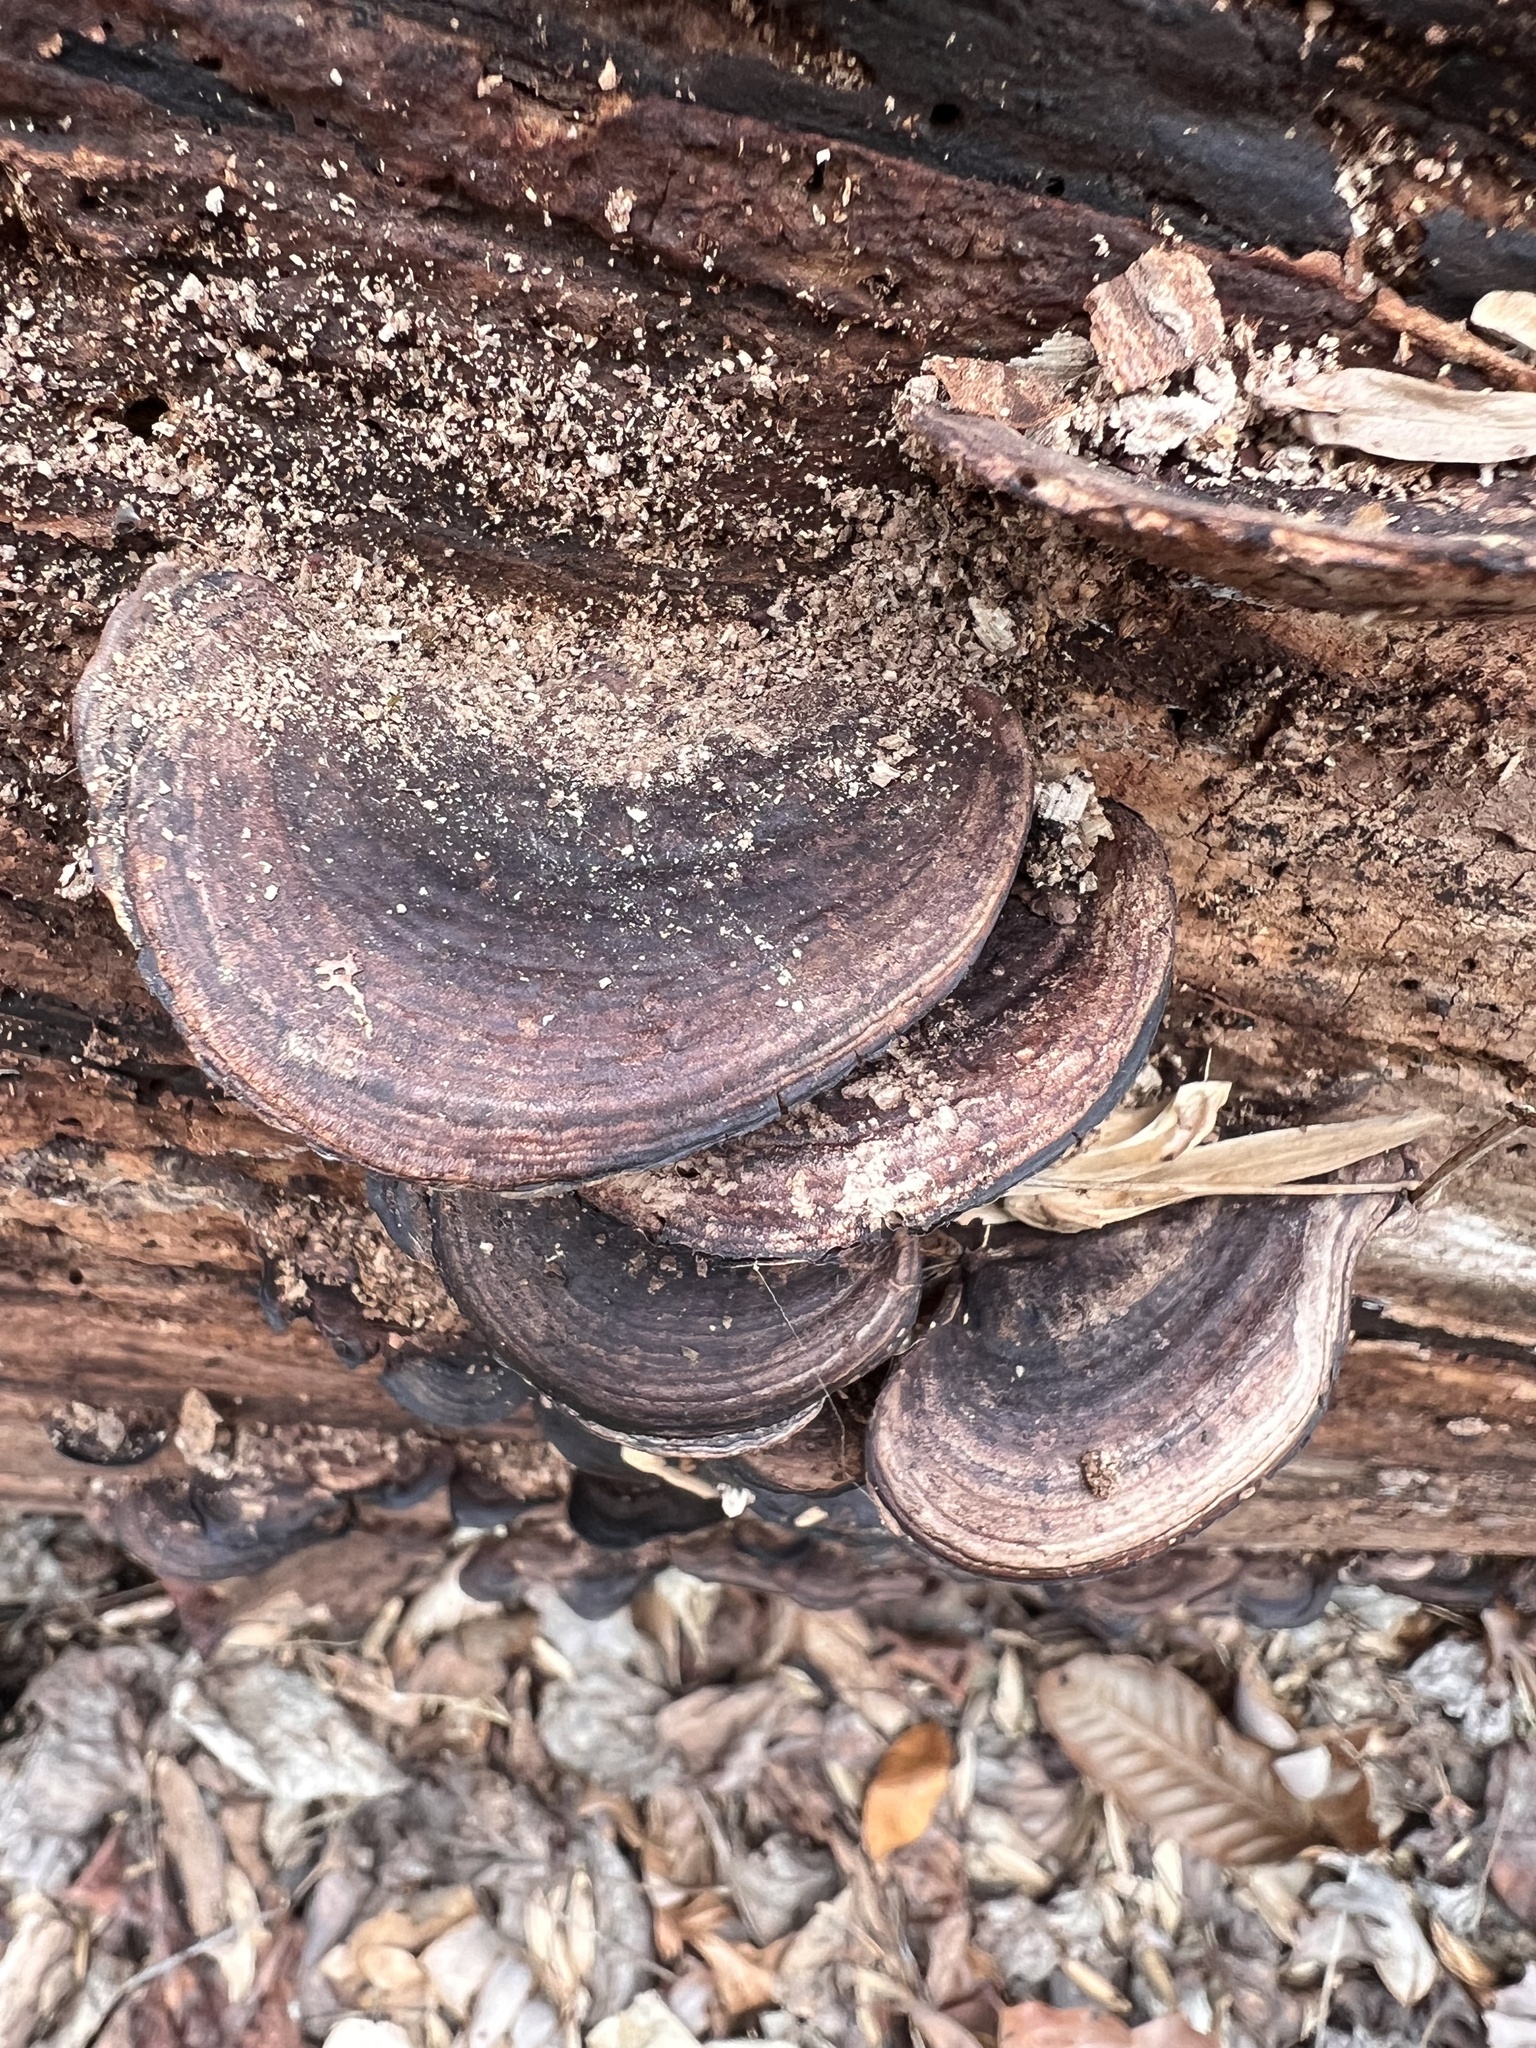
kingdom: Fungi
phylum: Basidiomycota
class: Agaricomycetes
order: Polyporales
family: Steccherinaceae
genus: Nigroporus
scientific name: Nigroporus vinosus
